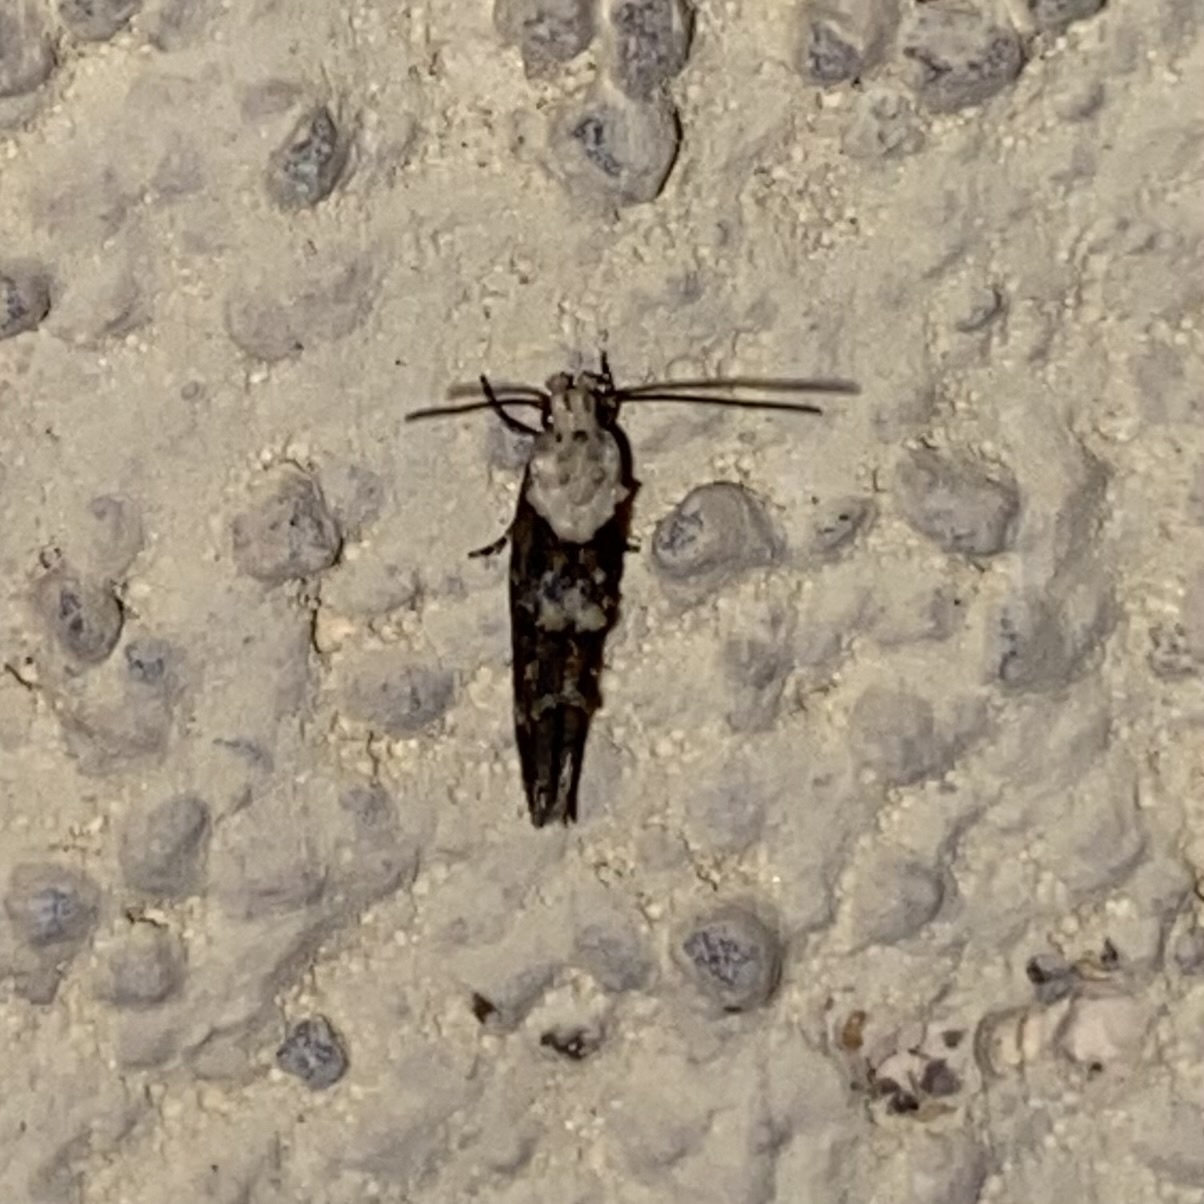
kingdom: Animalia
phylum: Arthropoda
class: Insecta
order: Lepidoptera
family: Momphidae
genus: Mompha
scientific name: Mompha albocapitella
